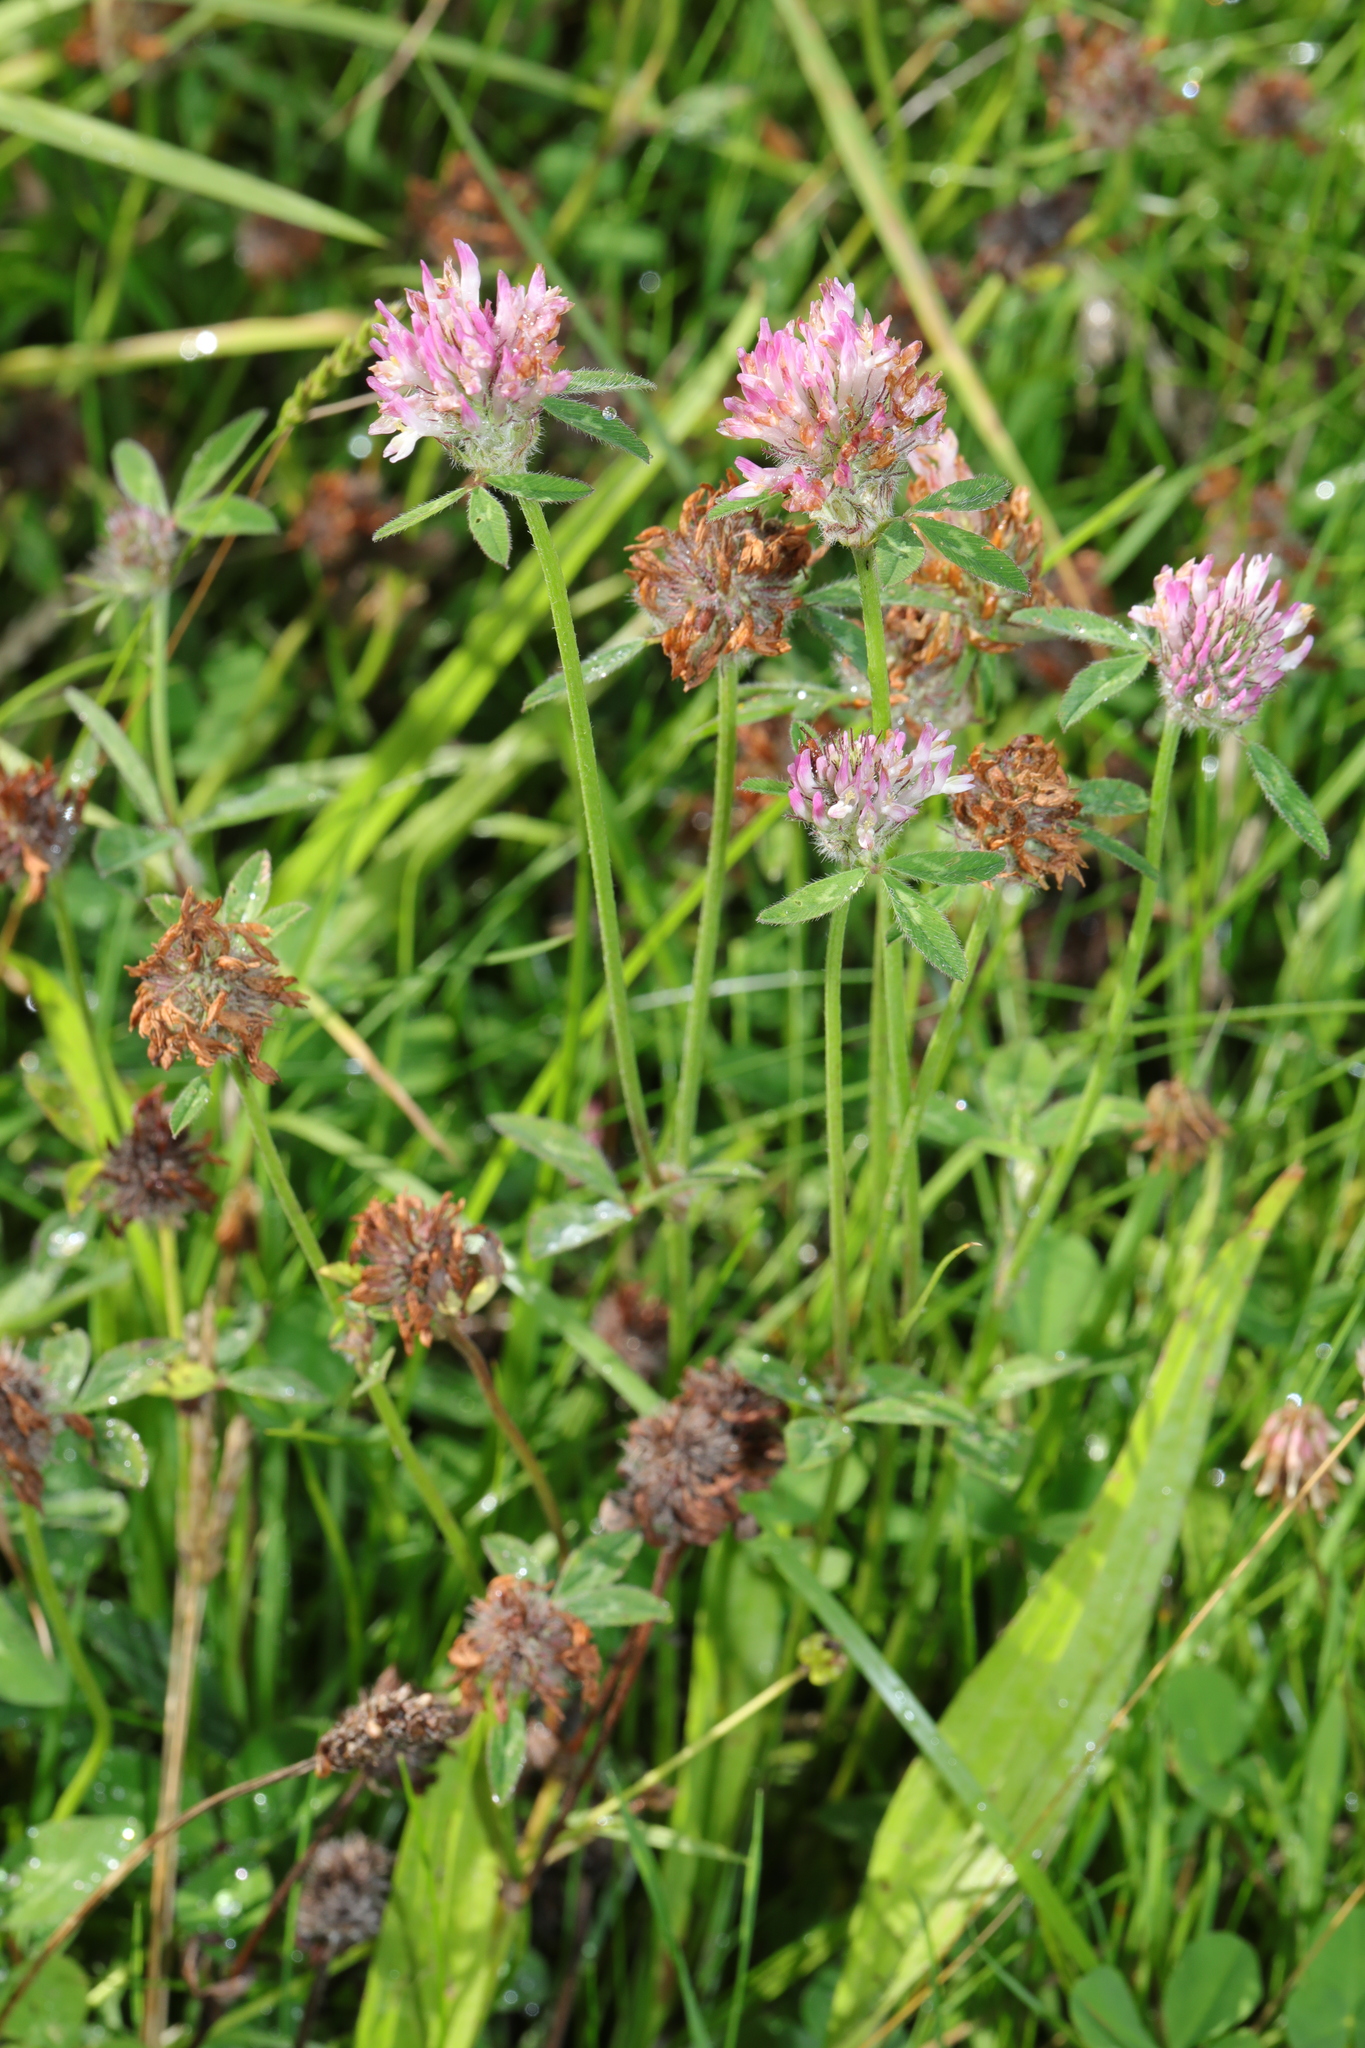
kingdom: Plantae
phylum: Tracheophyta
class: Magnoliopsida
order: Fabales
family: Fabaceae
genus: Trifolium
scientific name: Trifolium pratense
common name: Red clover
